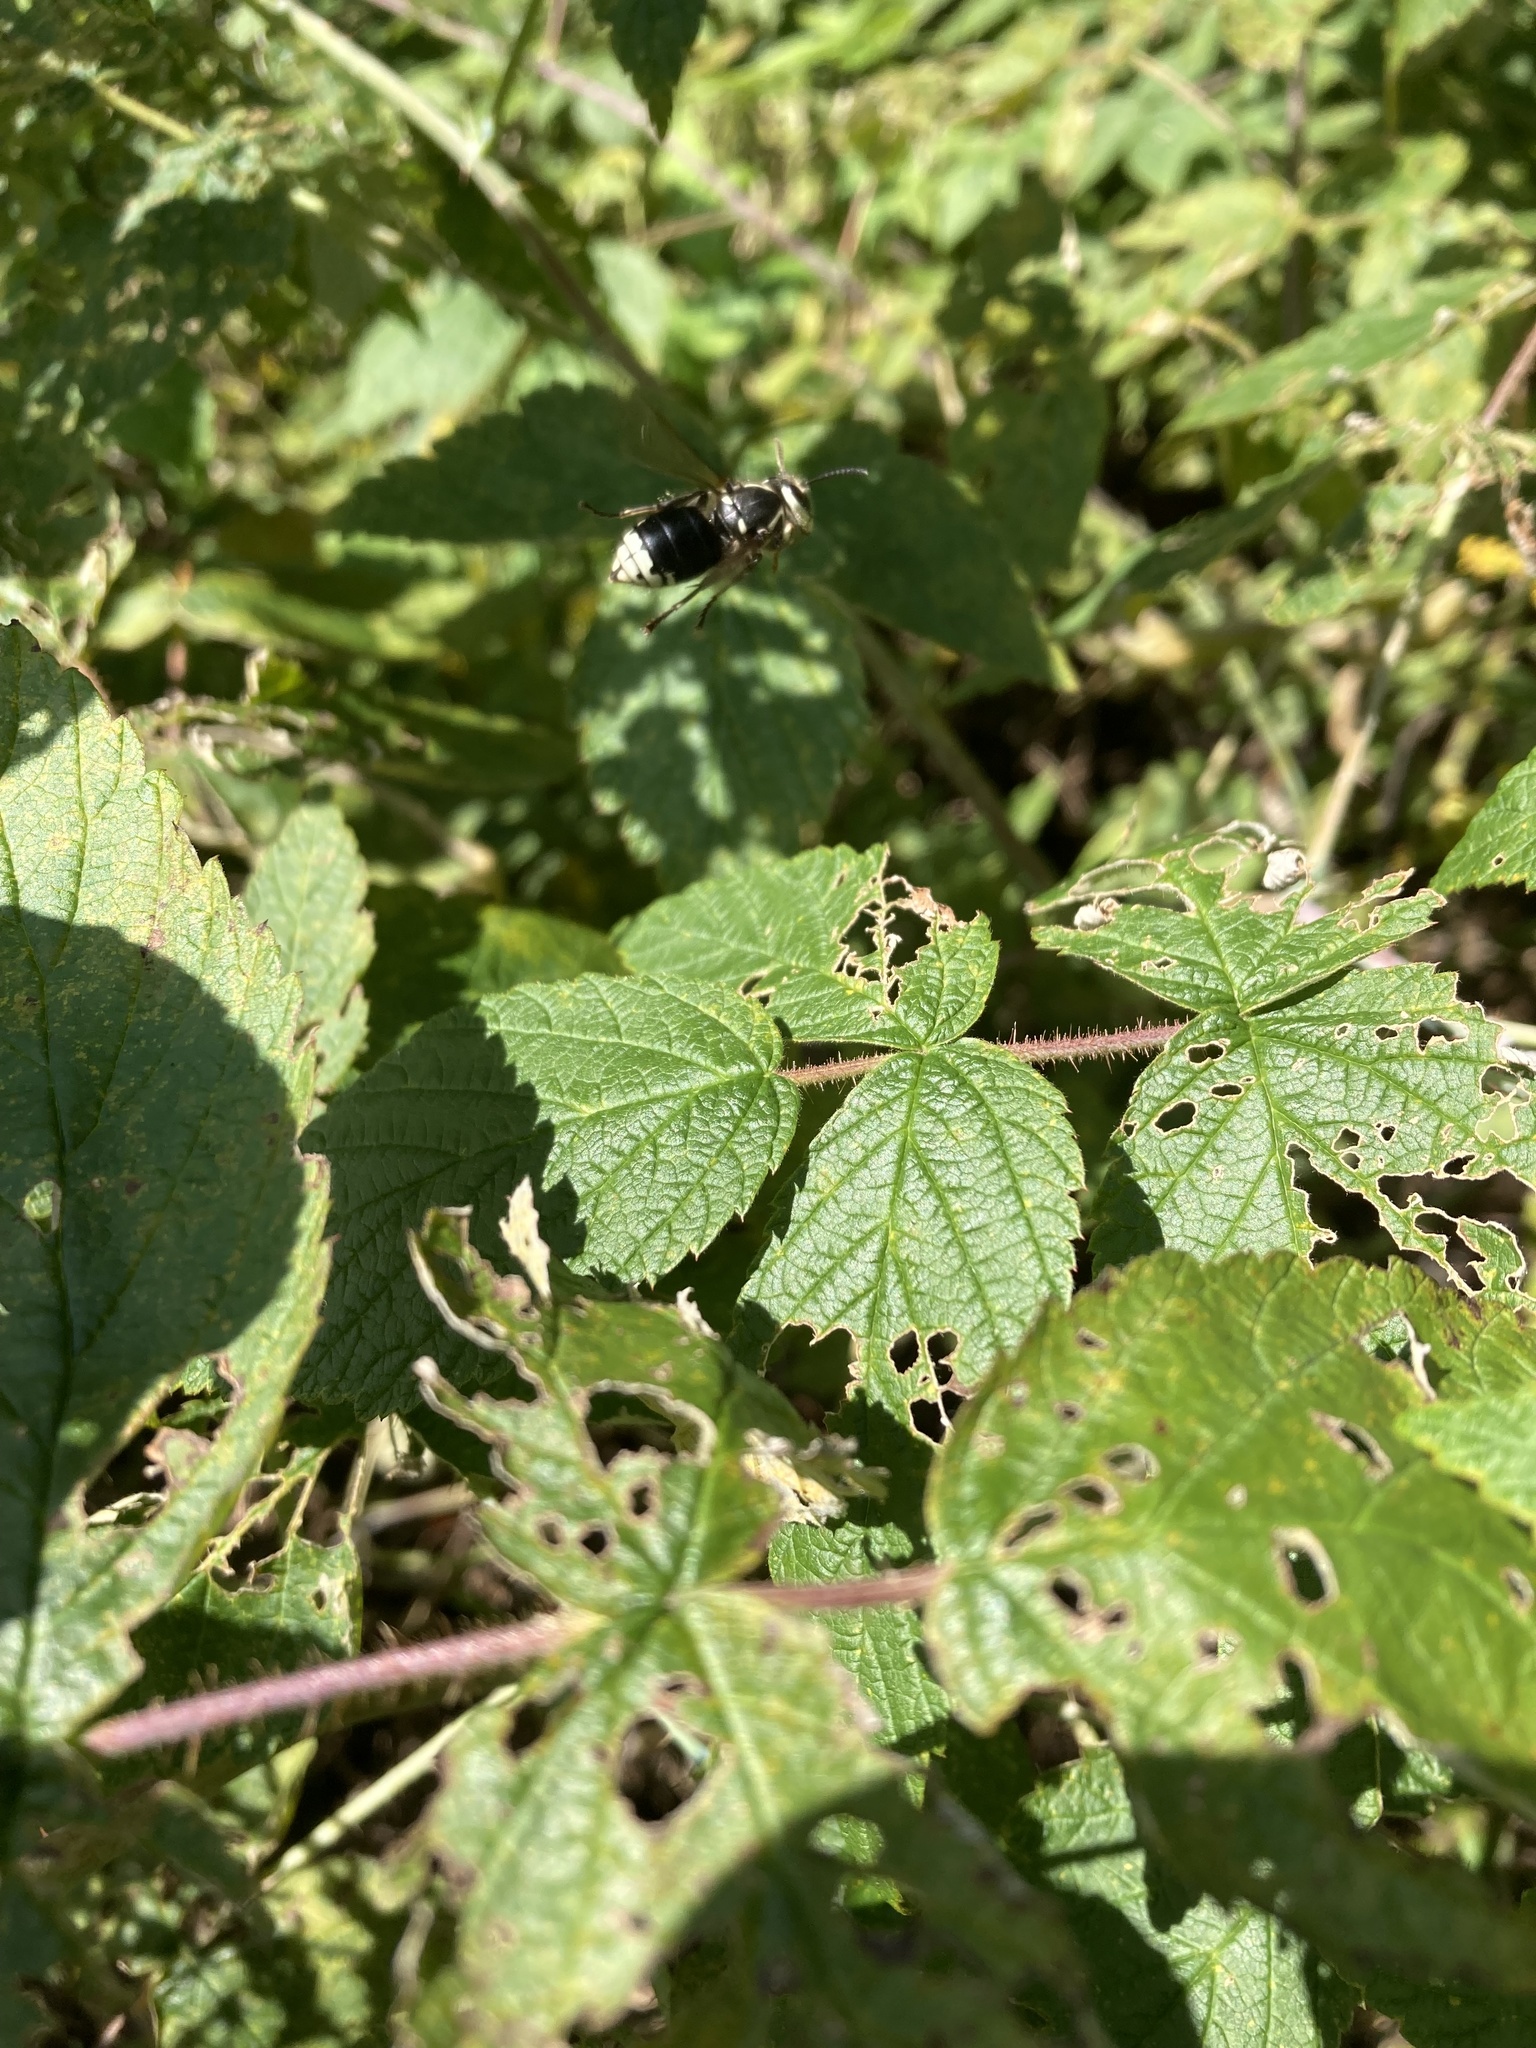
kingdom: Animalia
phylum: Arthropoda
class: Insecta
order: Hymenoptera
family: Vespidae
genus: Dolichovespula
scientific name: Dolichovespula maculata
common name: Bald-faced hornet
